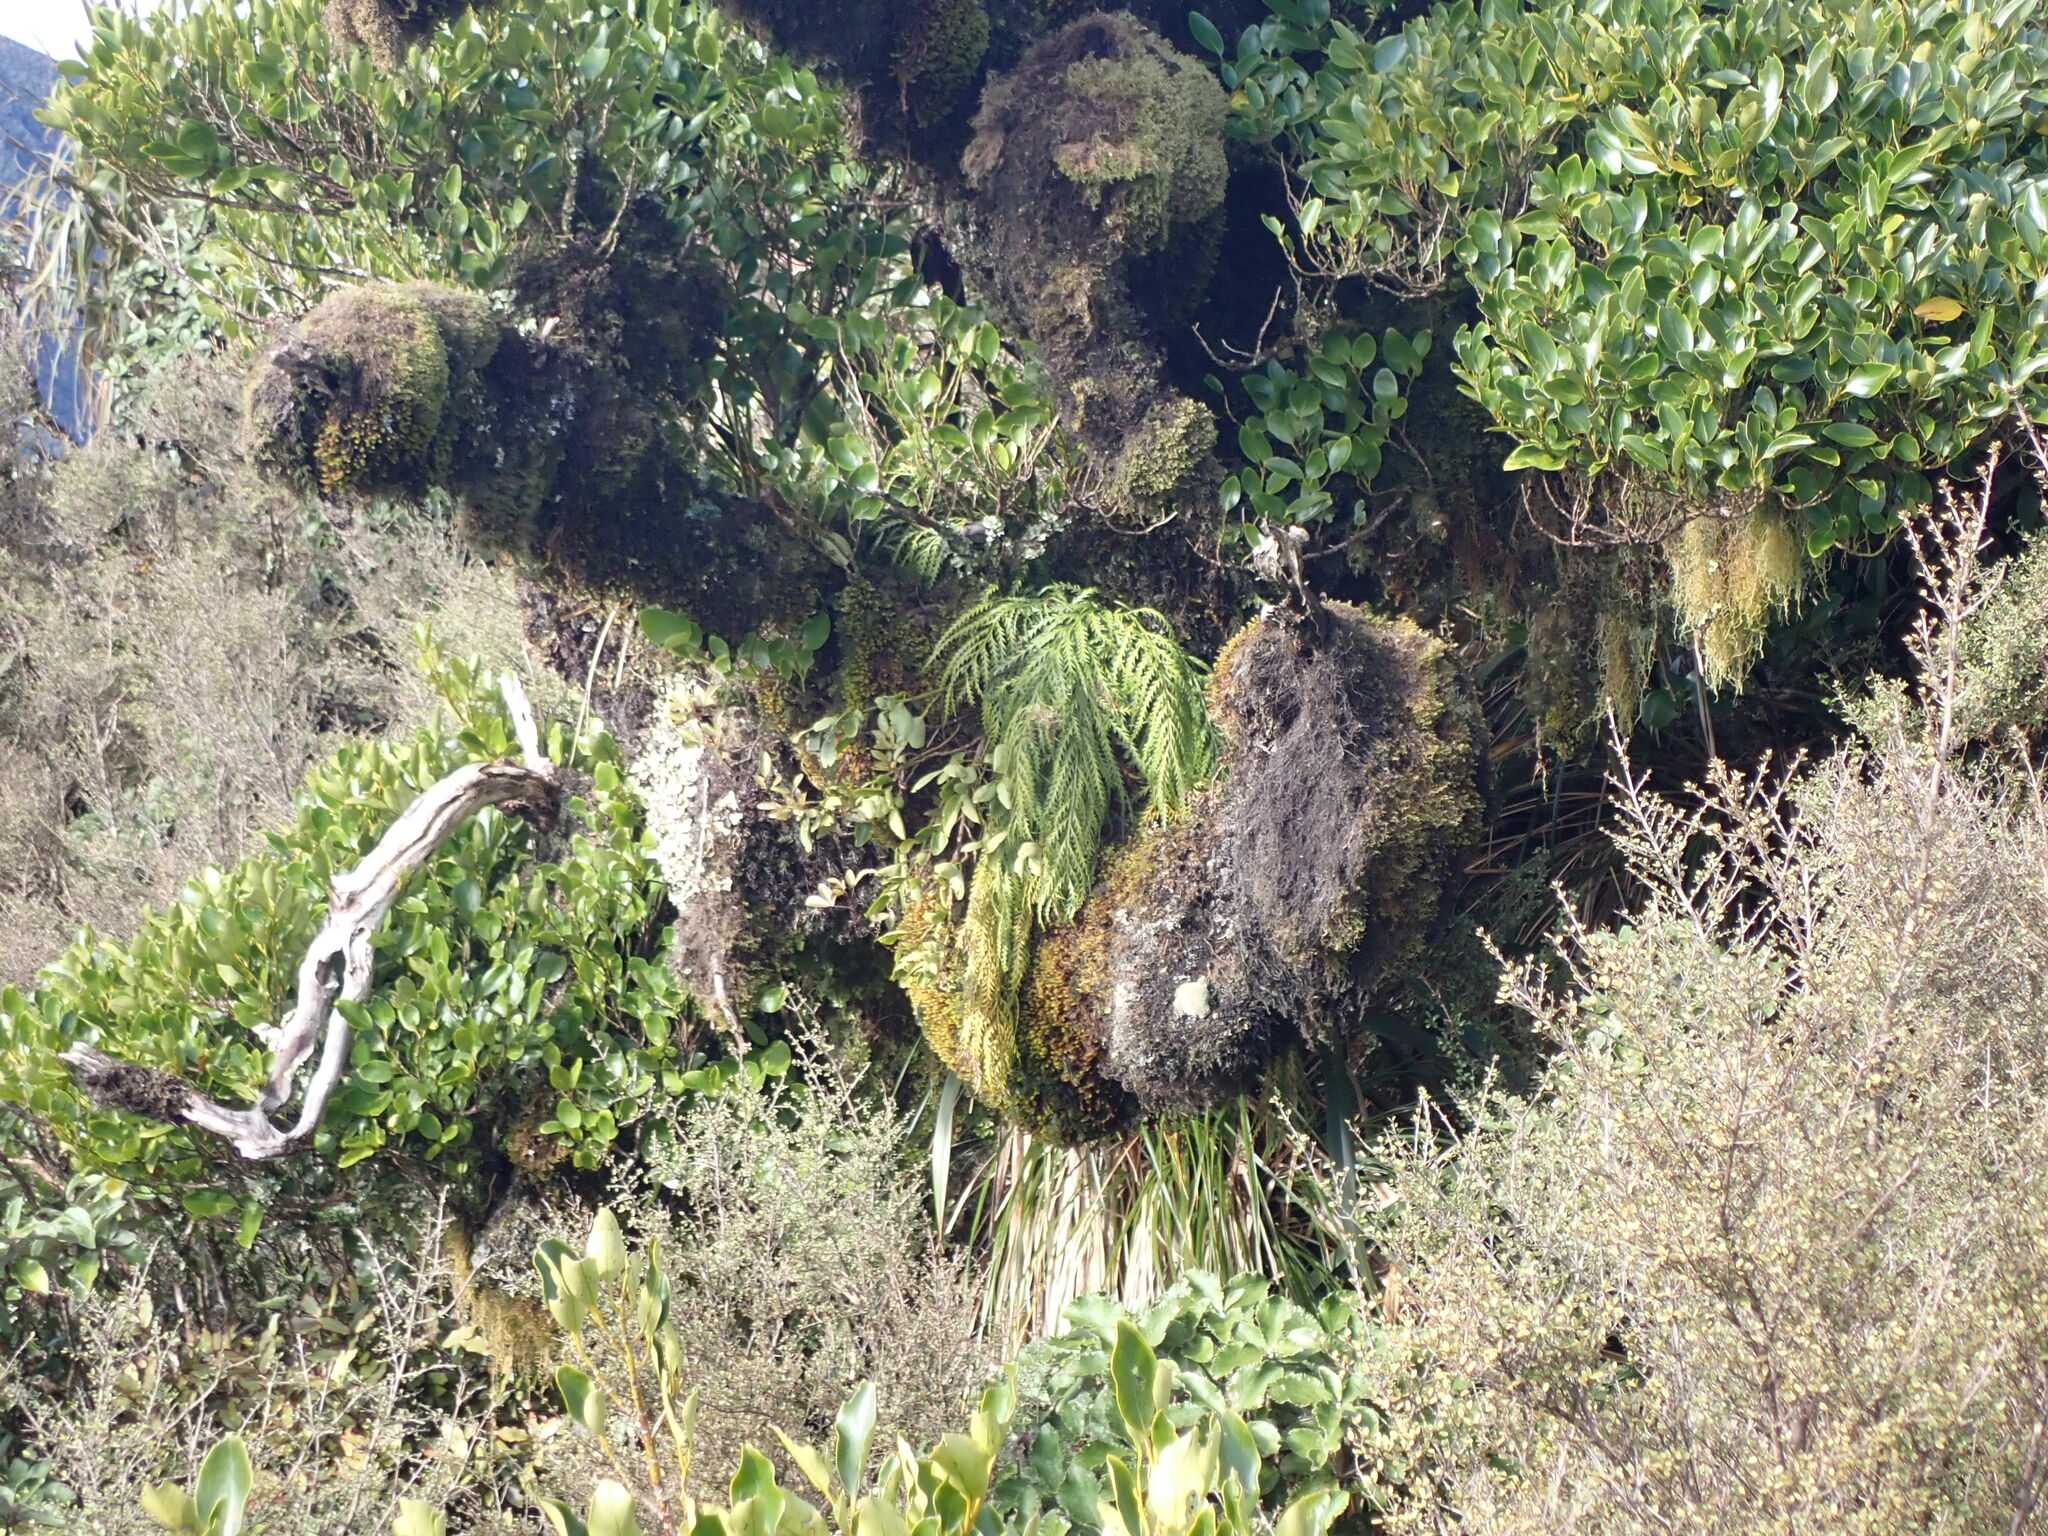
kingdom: Plantae
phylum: Tracheophyta
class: Polypodiopsida
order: Polypodiales
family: Aspleniaceae
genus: Asplenium
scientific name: Asplenium flaccidum
